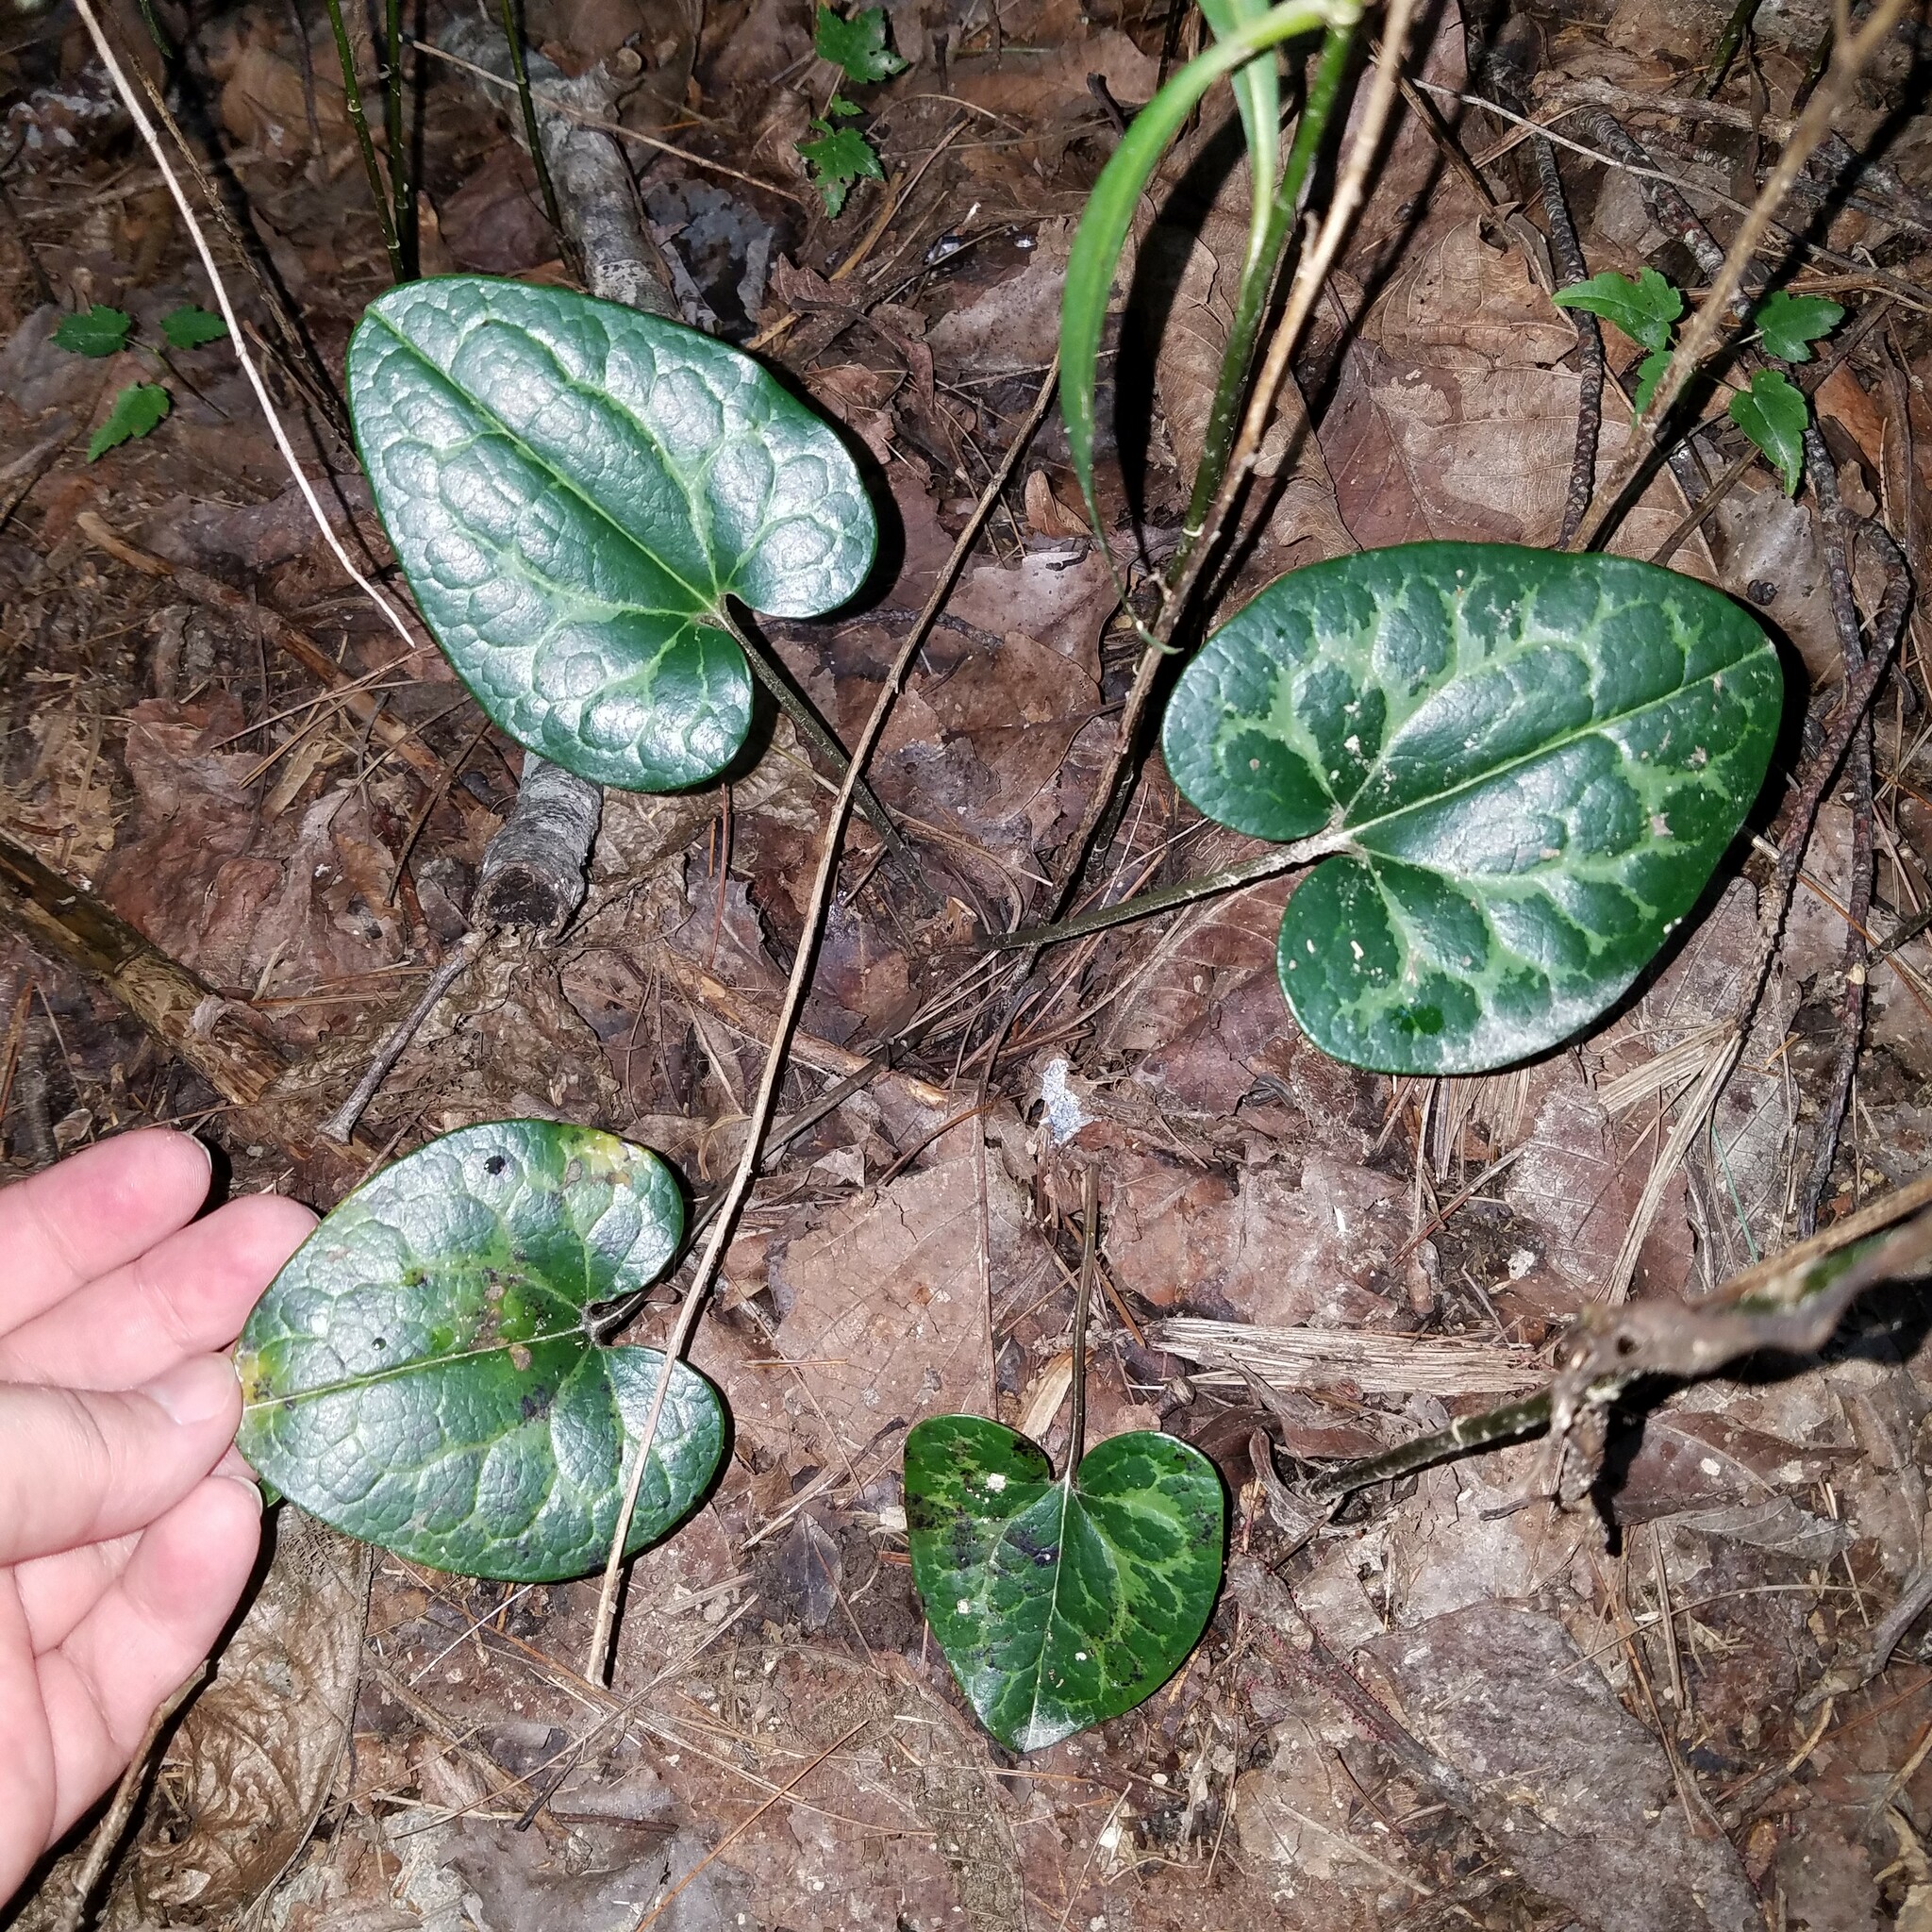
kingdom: Plantae
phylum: Tracheophyta
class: Magnoliopsida
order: Piperales
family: Aristolochiaceae
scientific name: Aristolochiaceae
